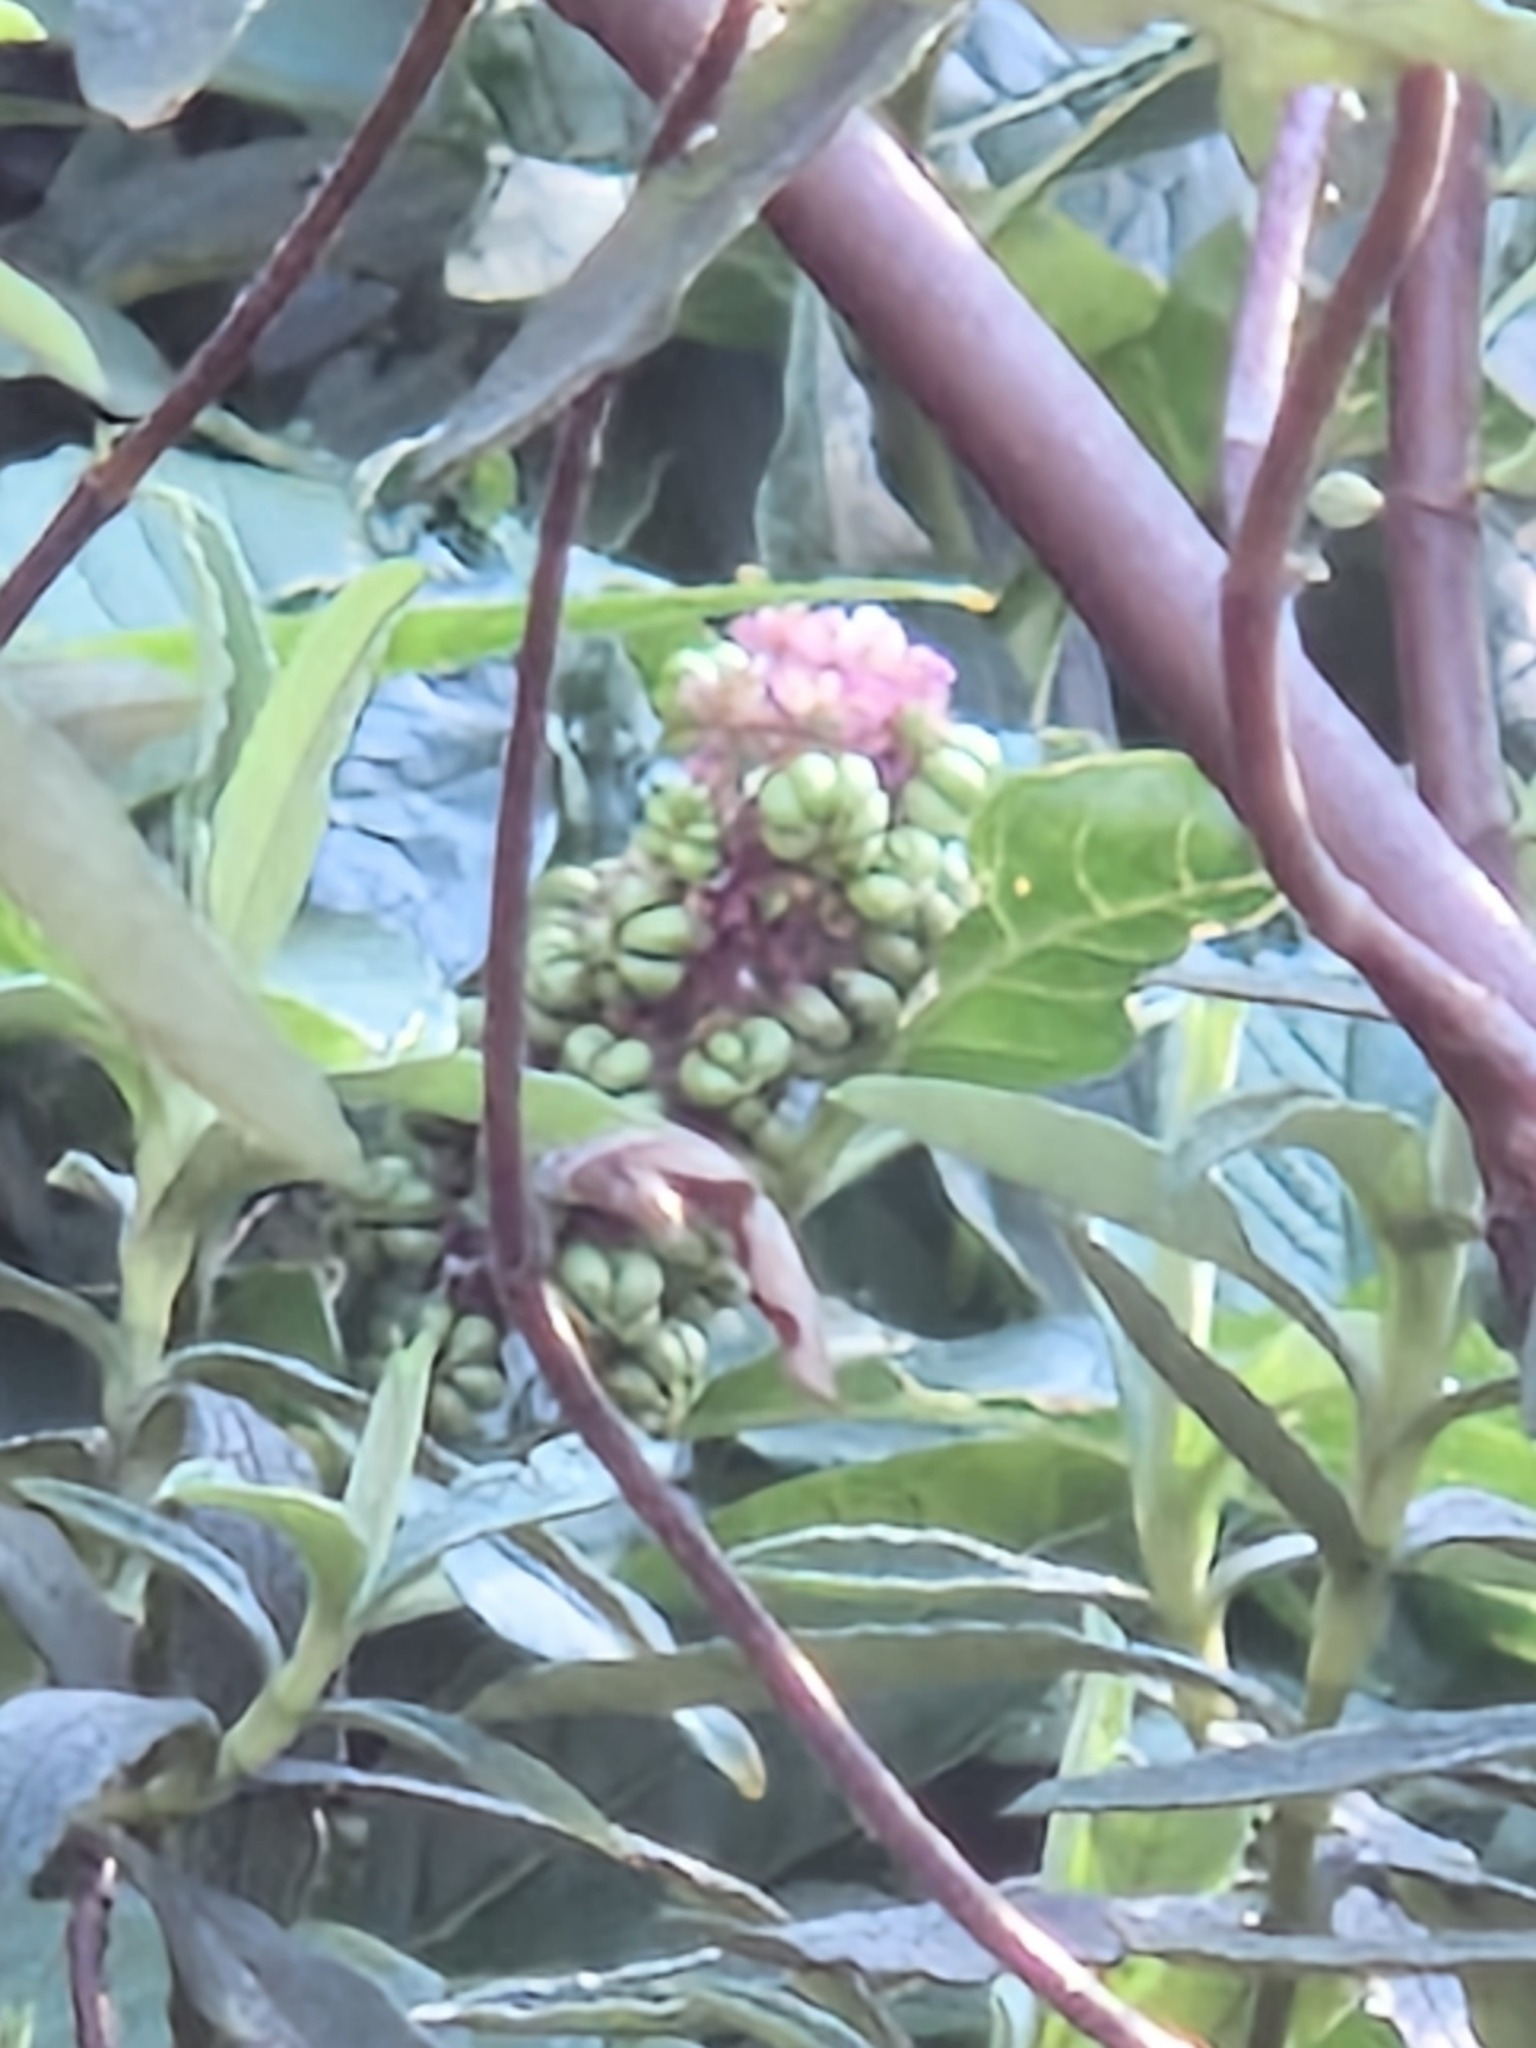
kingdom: Plantae
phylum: Tracheophyta
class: Magnoliopsida
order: Caryophyllales
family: Phytolaccaceae
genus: Phytolacca
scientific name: Phytolacca acinosa
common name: Indian pokeweed
